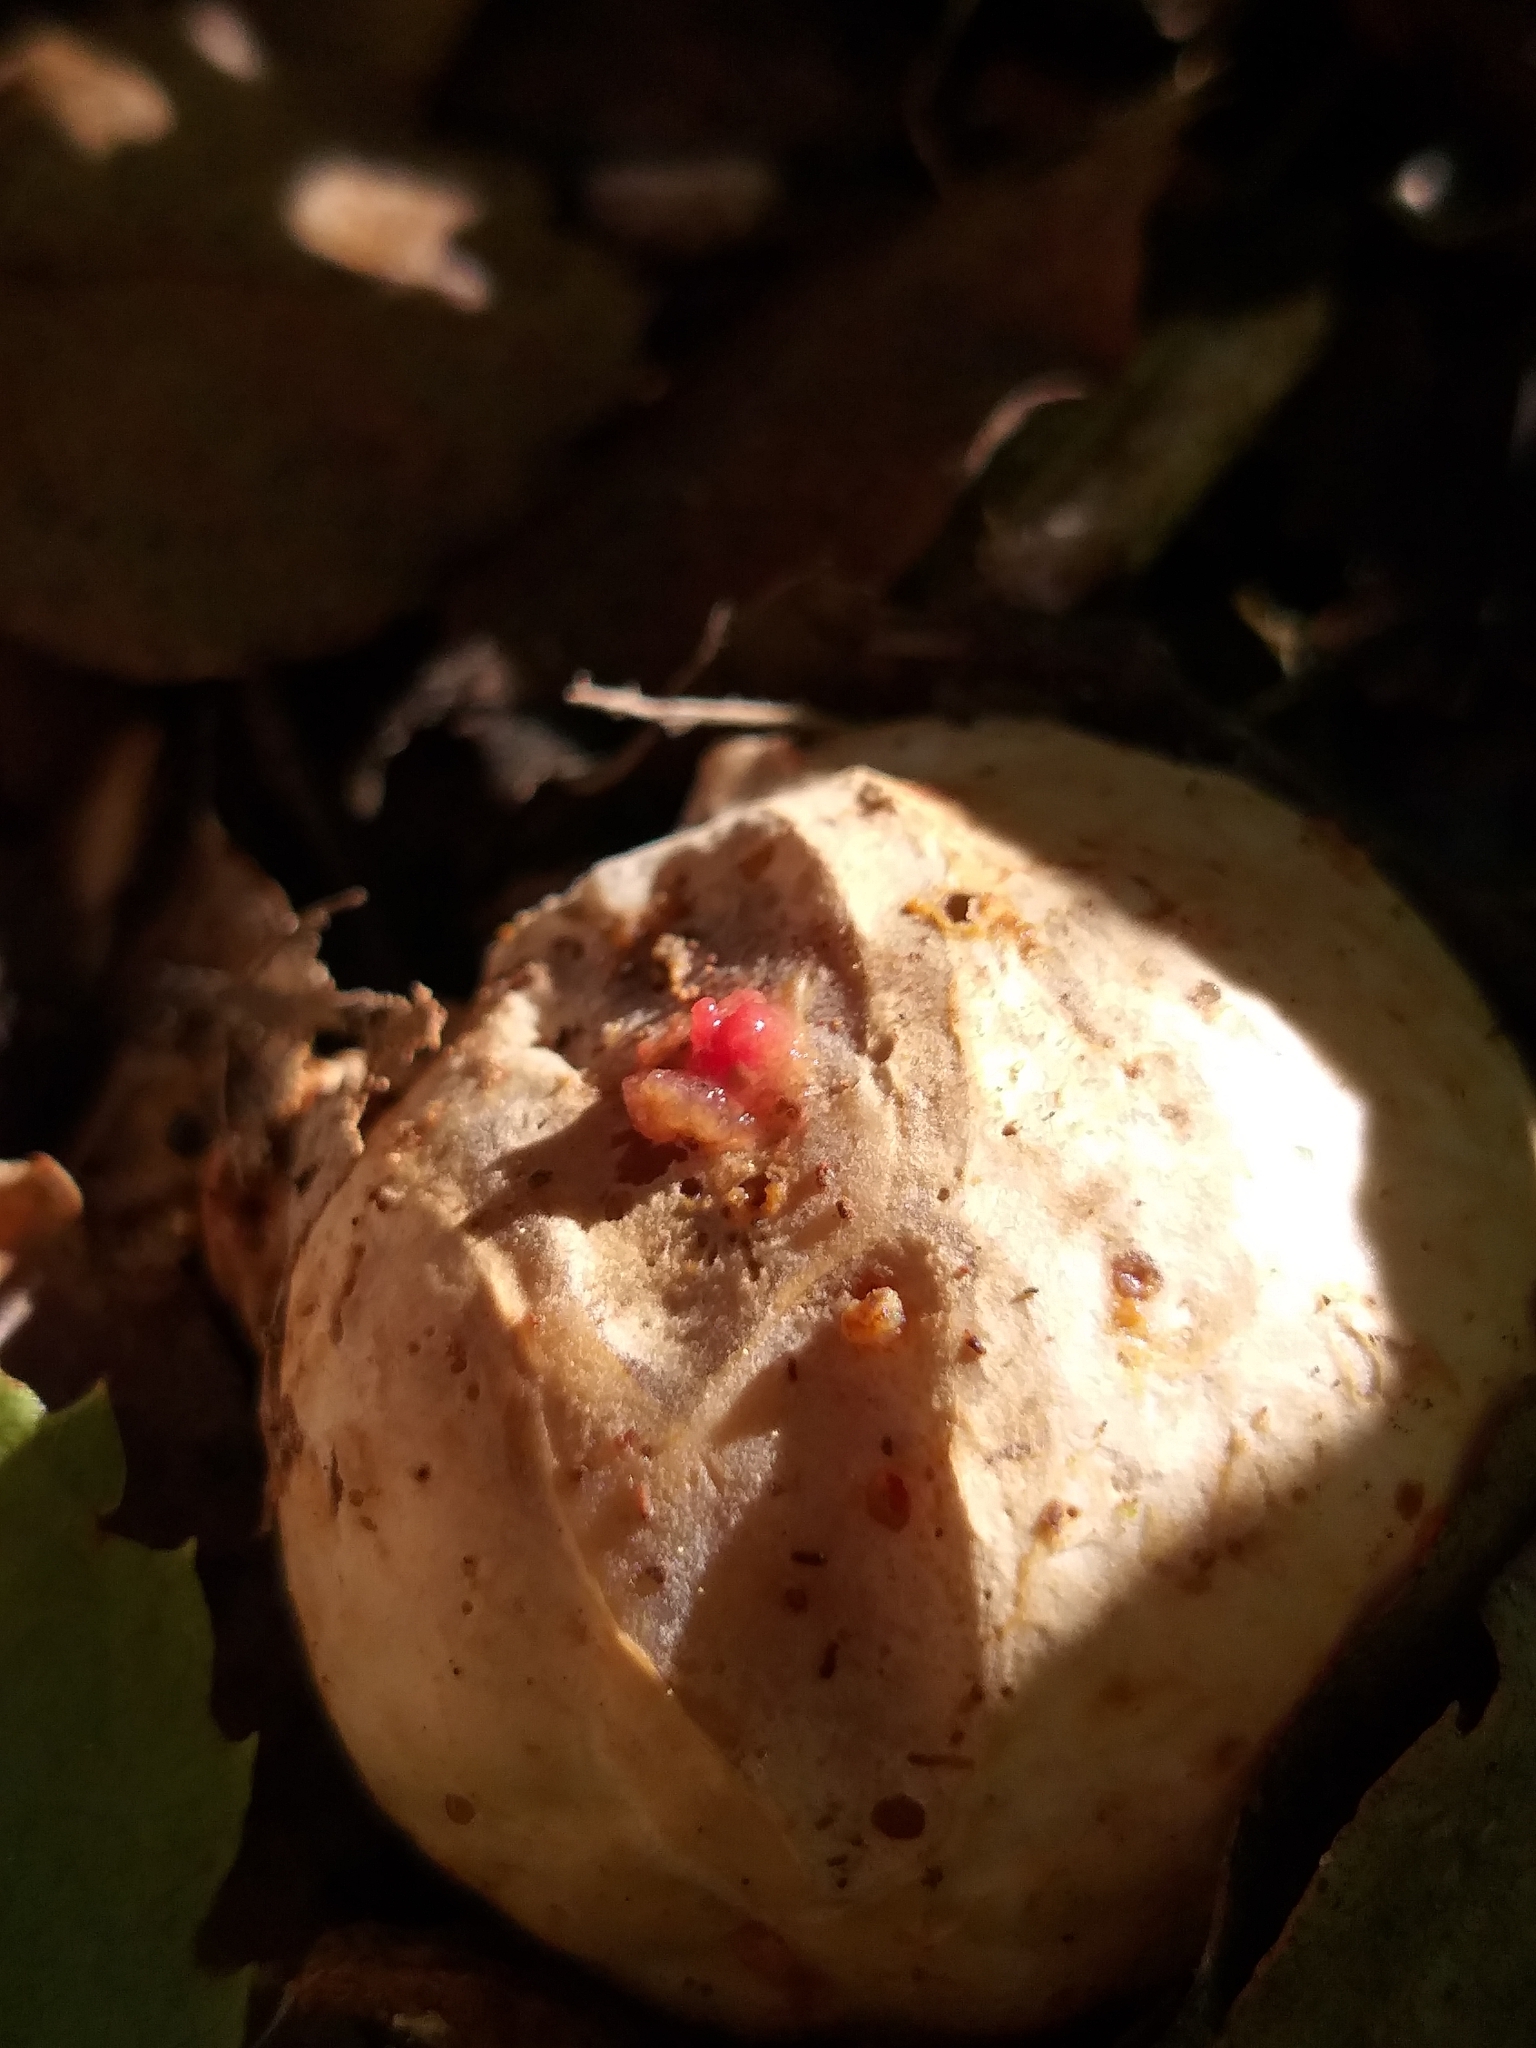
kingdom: Fungi
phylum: Basidiomycota
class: Agaricomycetes
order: Phallales
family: Phallaceae
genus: Clathrus
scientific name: Clathrus archeri
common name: Devil's fingers
